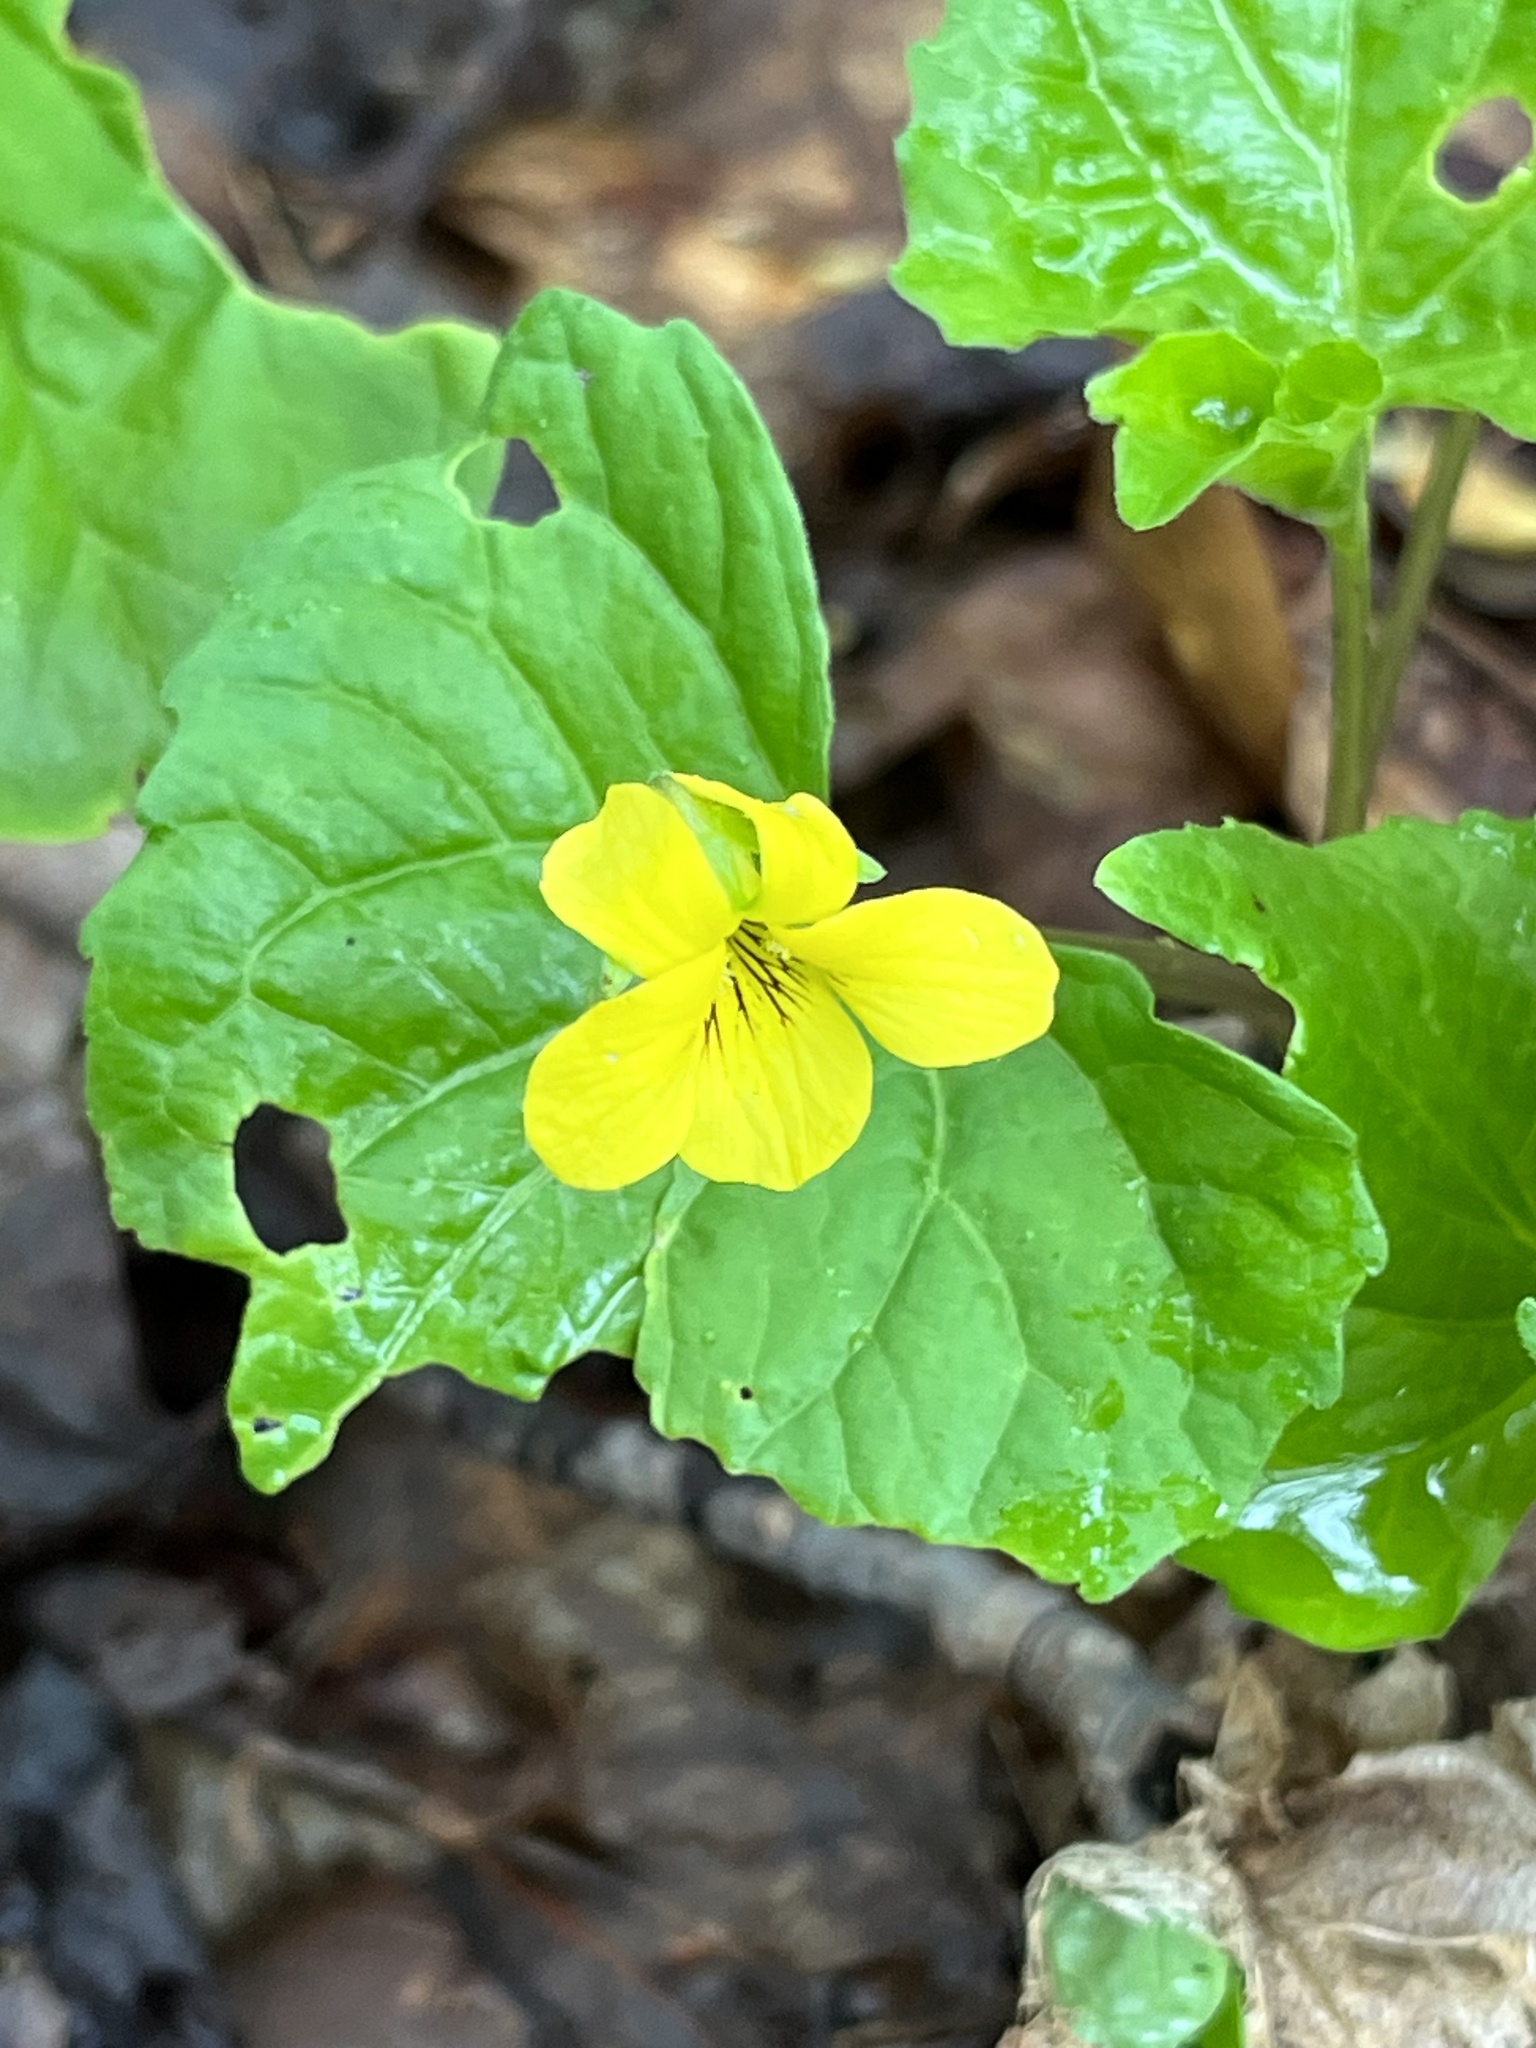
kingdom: Plantae
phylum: Tracheophyta
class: Magnoliopsida
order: Malpighiales
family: Violaceae
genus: Viola
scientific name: Viola eriocarpa
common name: Smooth yellow violet
